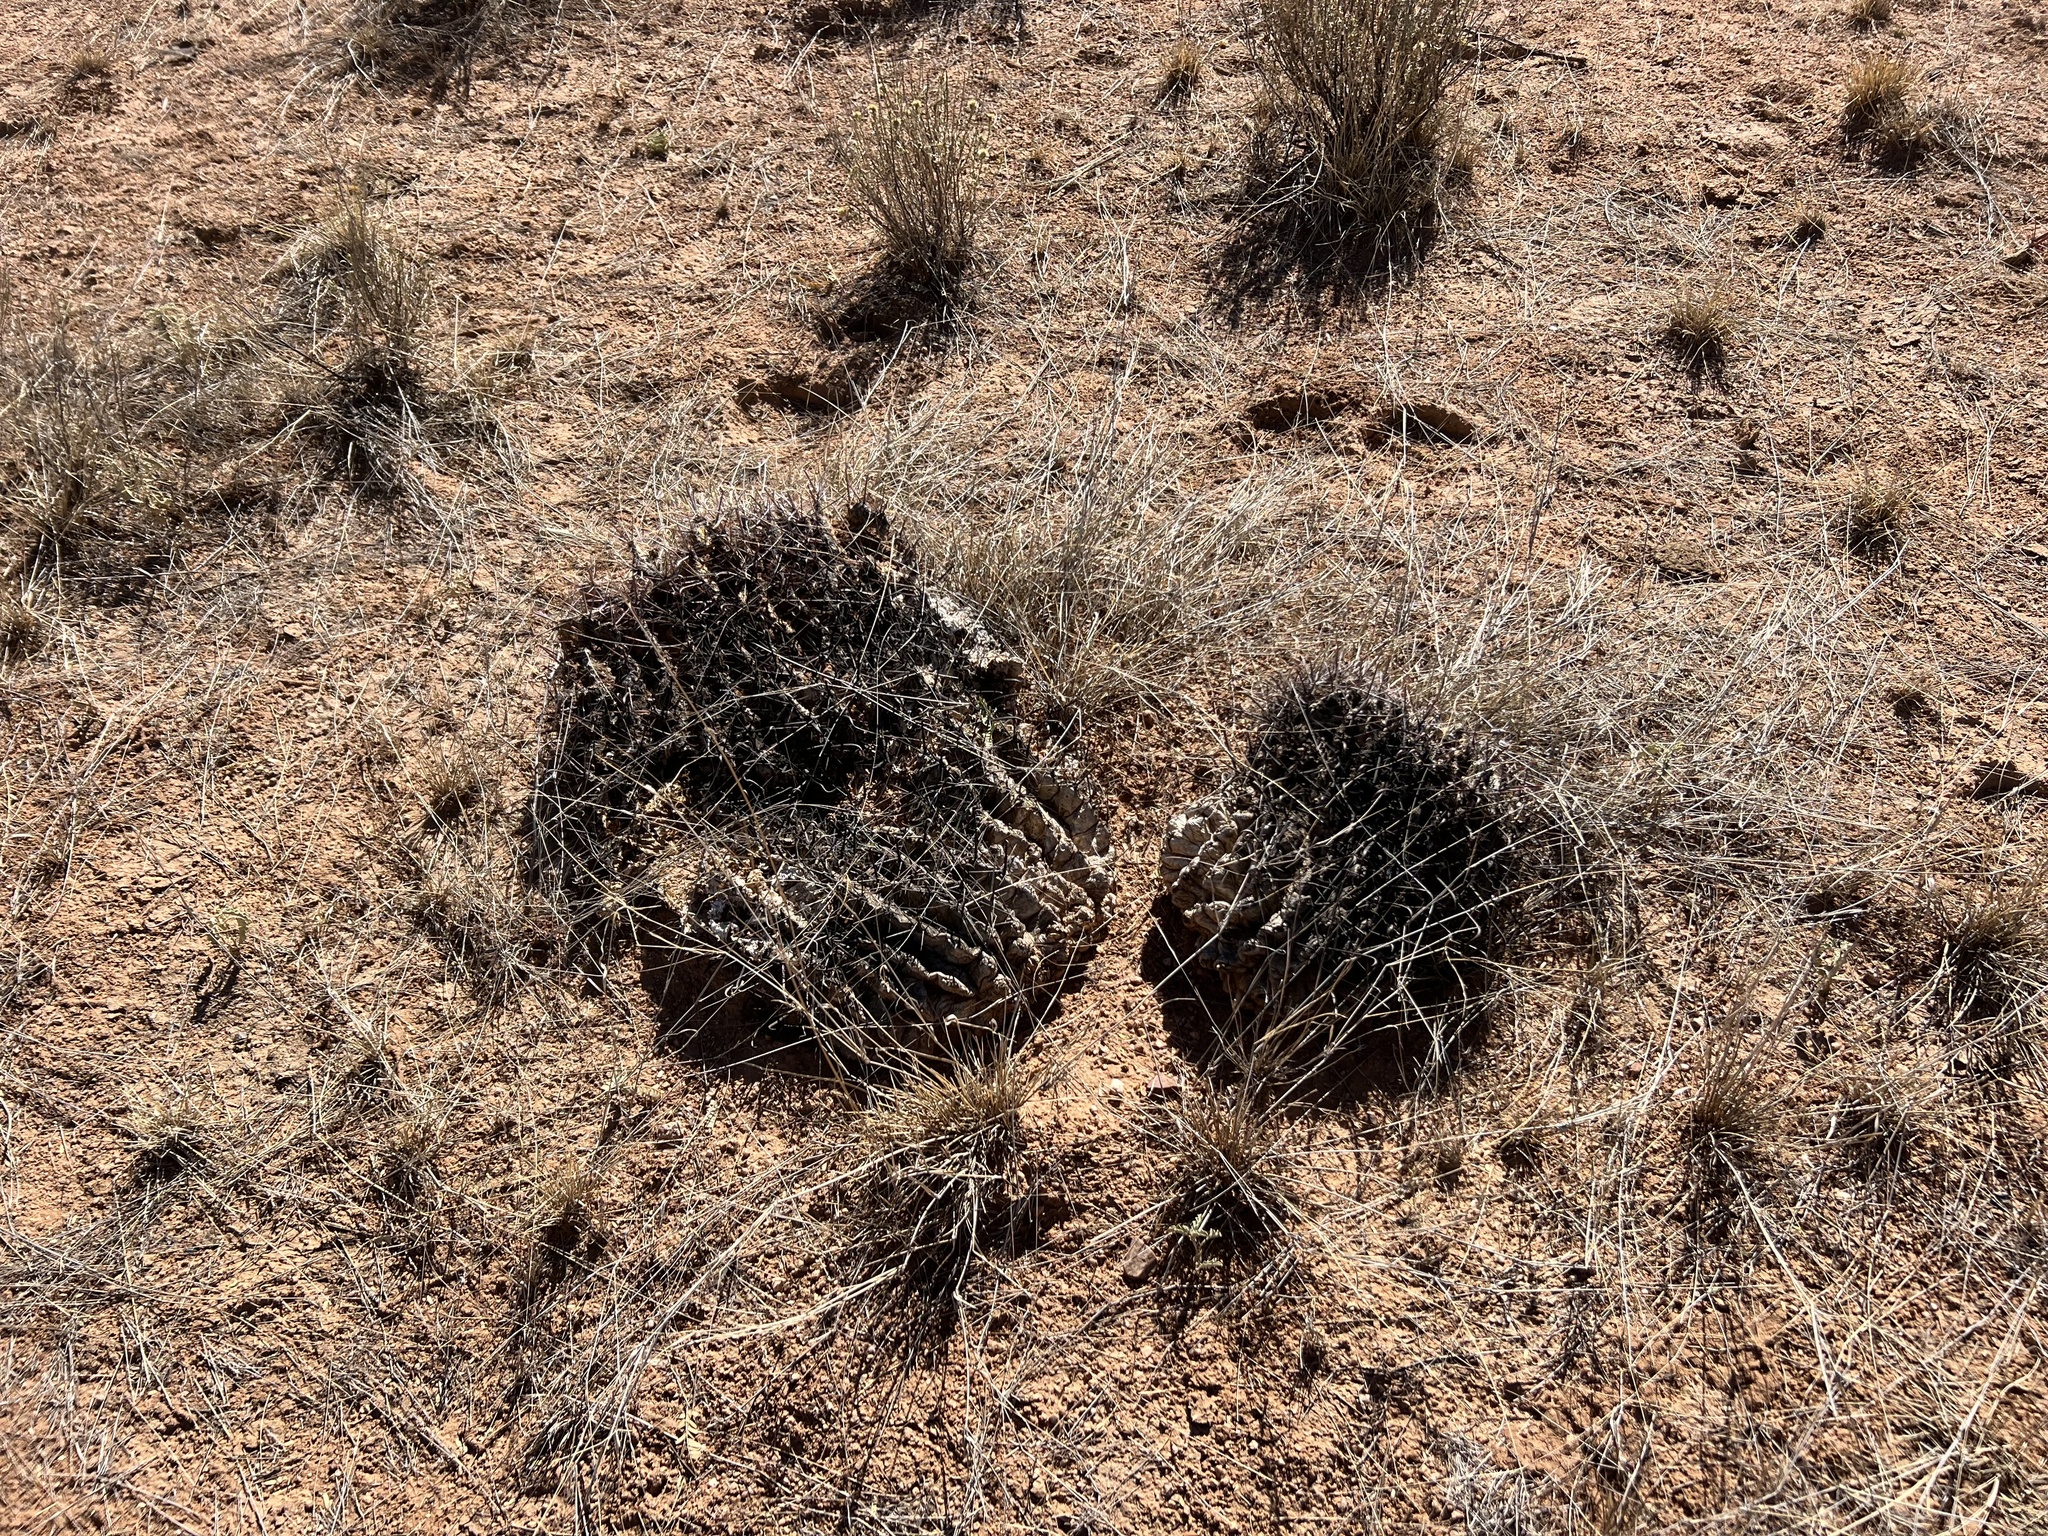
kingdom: Plantae
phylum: Tracheophyta
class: Magnoliopsida
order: Caryophyllales
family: Cactaceae
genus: Ferocactus
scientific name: Ferocactus wislizeni
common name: Candy barrel cactus
